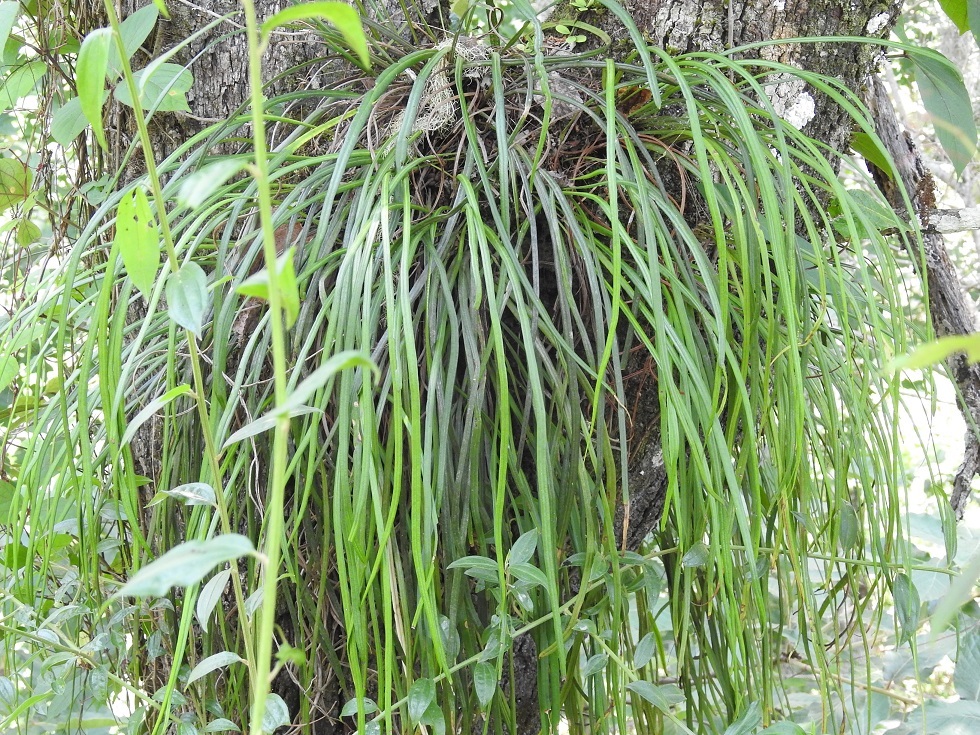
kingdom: Plantae
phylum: Tracheophyta
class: Polypodiopsida
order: Polypodiales
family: Pteridaceae
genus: Vittaria
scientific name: Vittaria graminifolia
